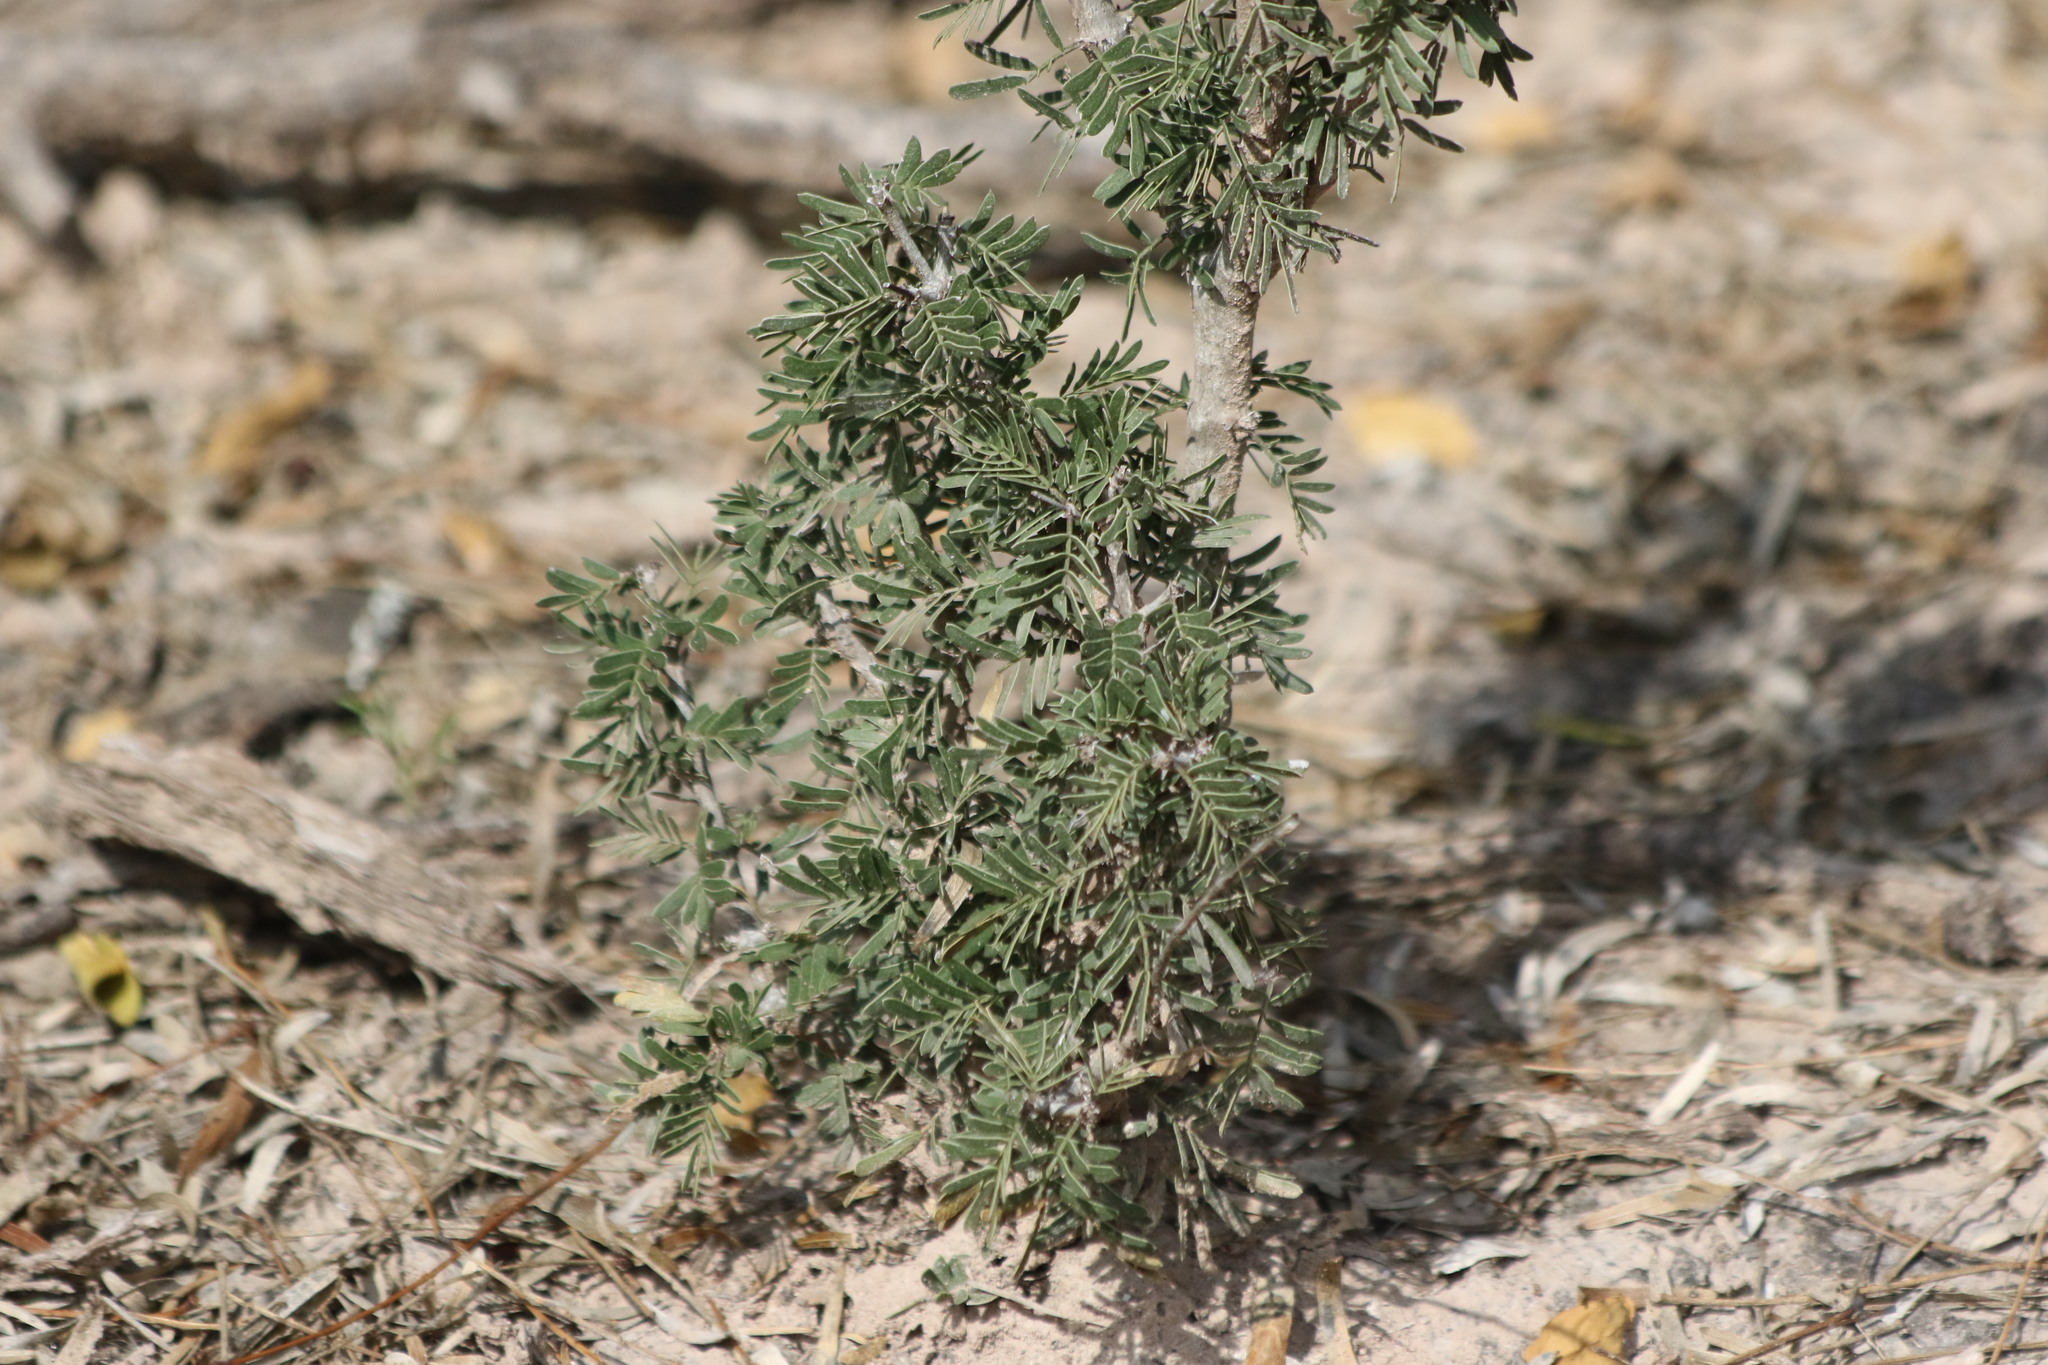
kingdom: Plantae
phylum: Tracheophyta
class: Magnoliopsida
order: Zygophyllales
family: Zygophyllaceae
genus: Porlieria
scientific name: Porlieria angustifolia
